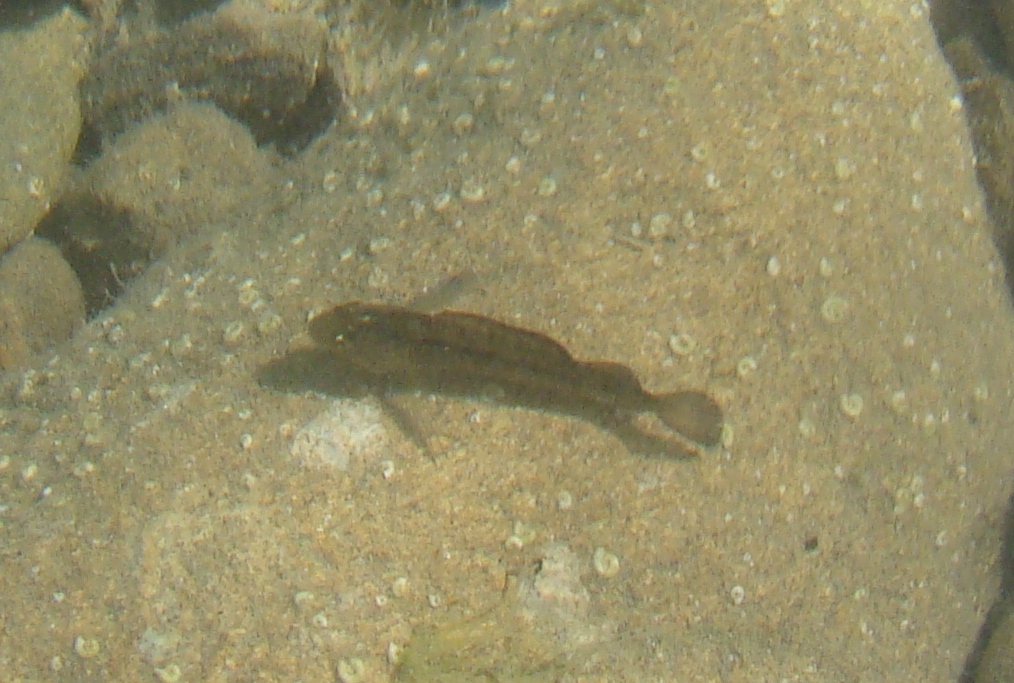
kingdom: Animalia
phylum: Chordata
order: Perciformes
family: Tripterygiidae
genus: Forsterygion
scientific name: Forsterygion lapillum
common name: Common triplefin
